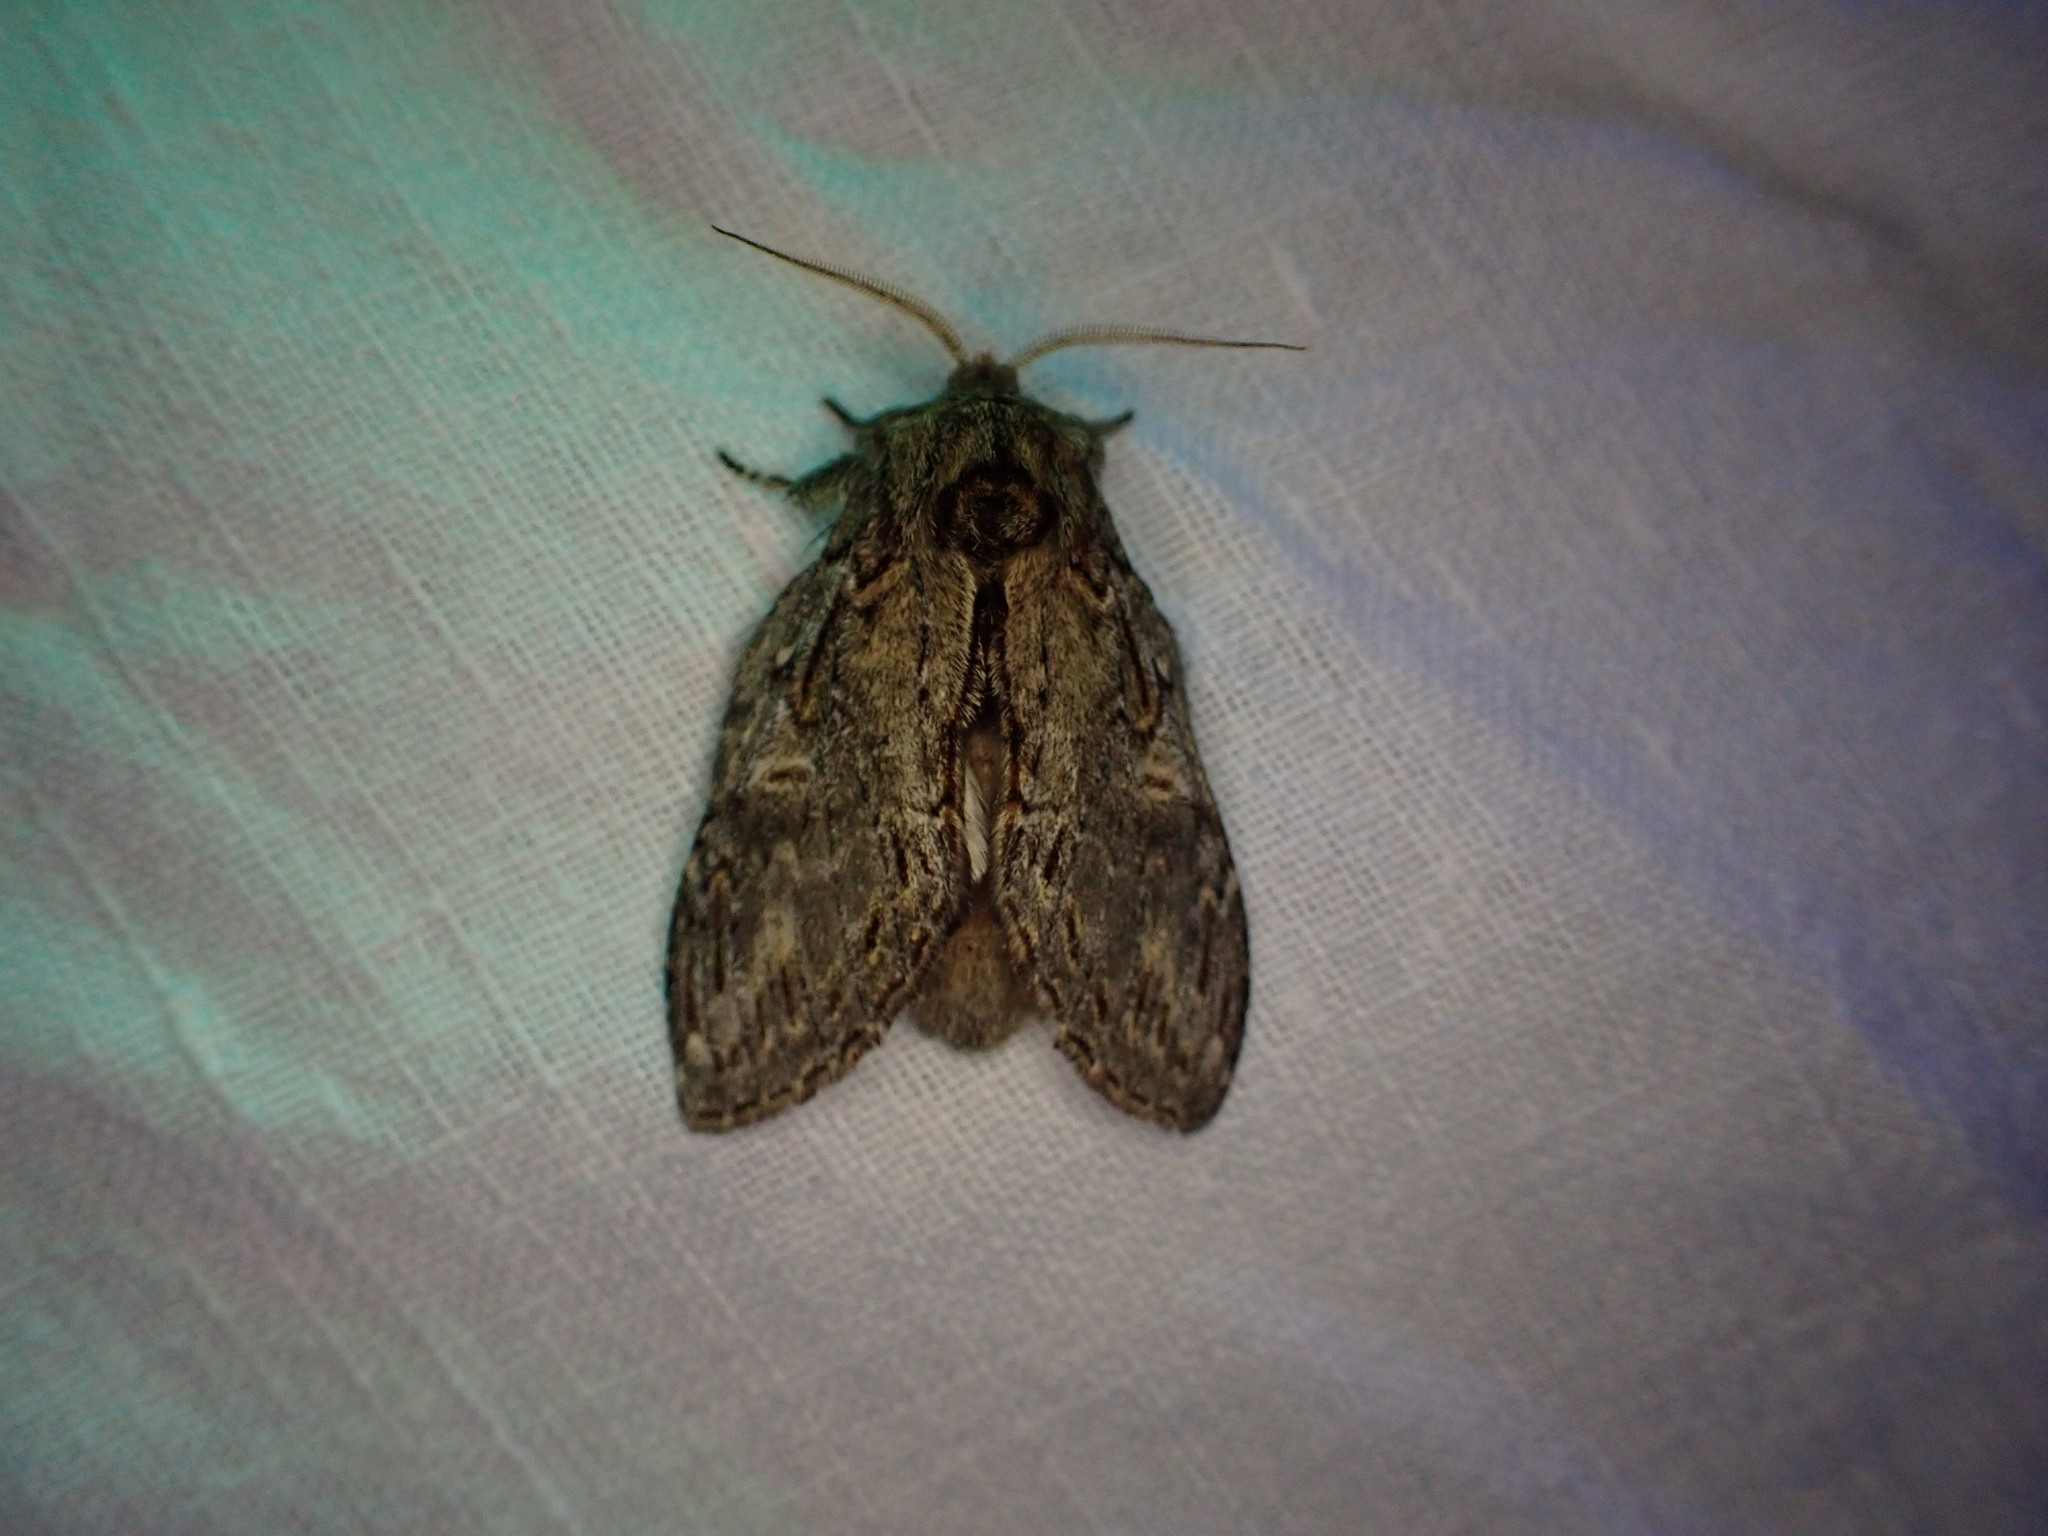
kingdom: Animalia
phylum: Arthropoda
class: Insecta
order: Lepidoptera
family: Notodontidae
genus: Peridea
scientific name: Peridea anceps
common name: Great prominent
